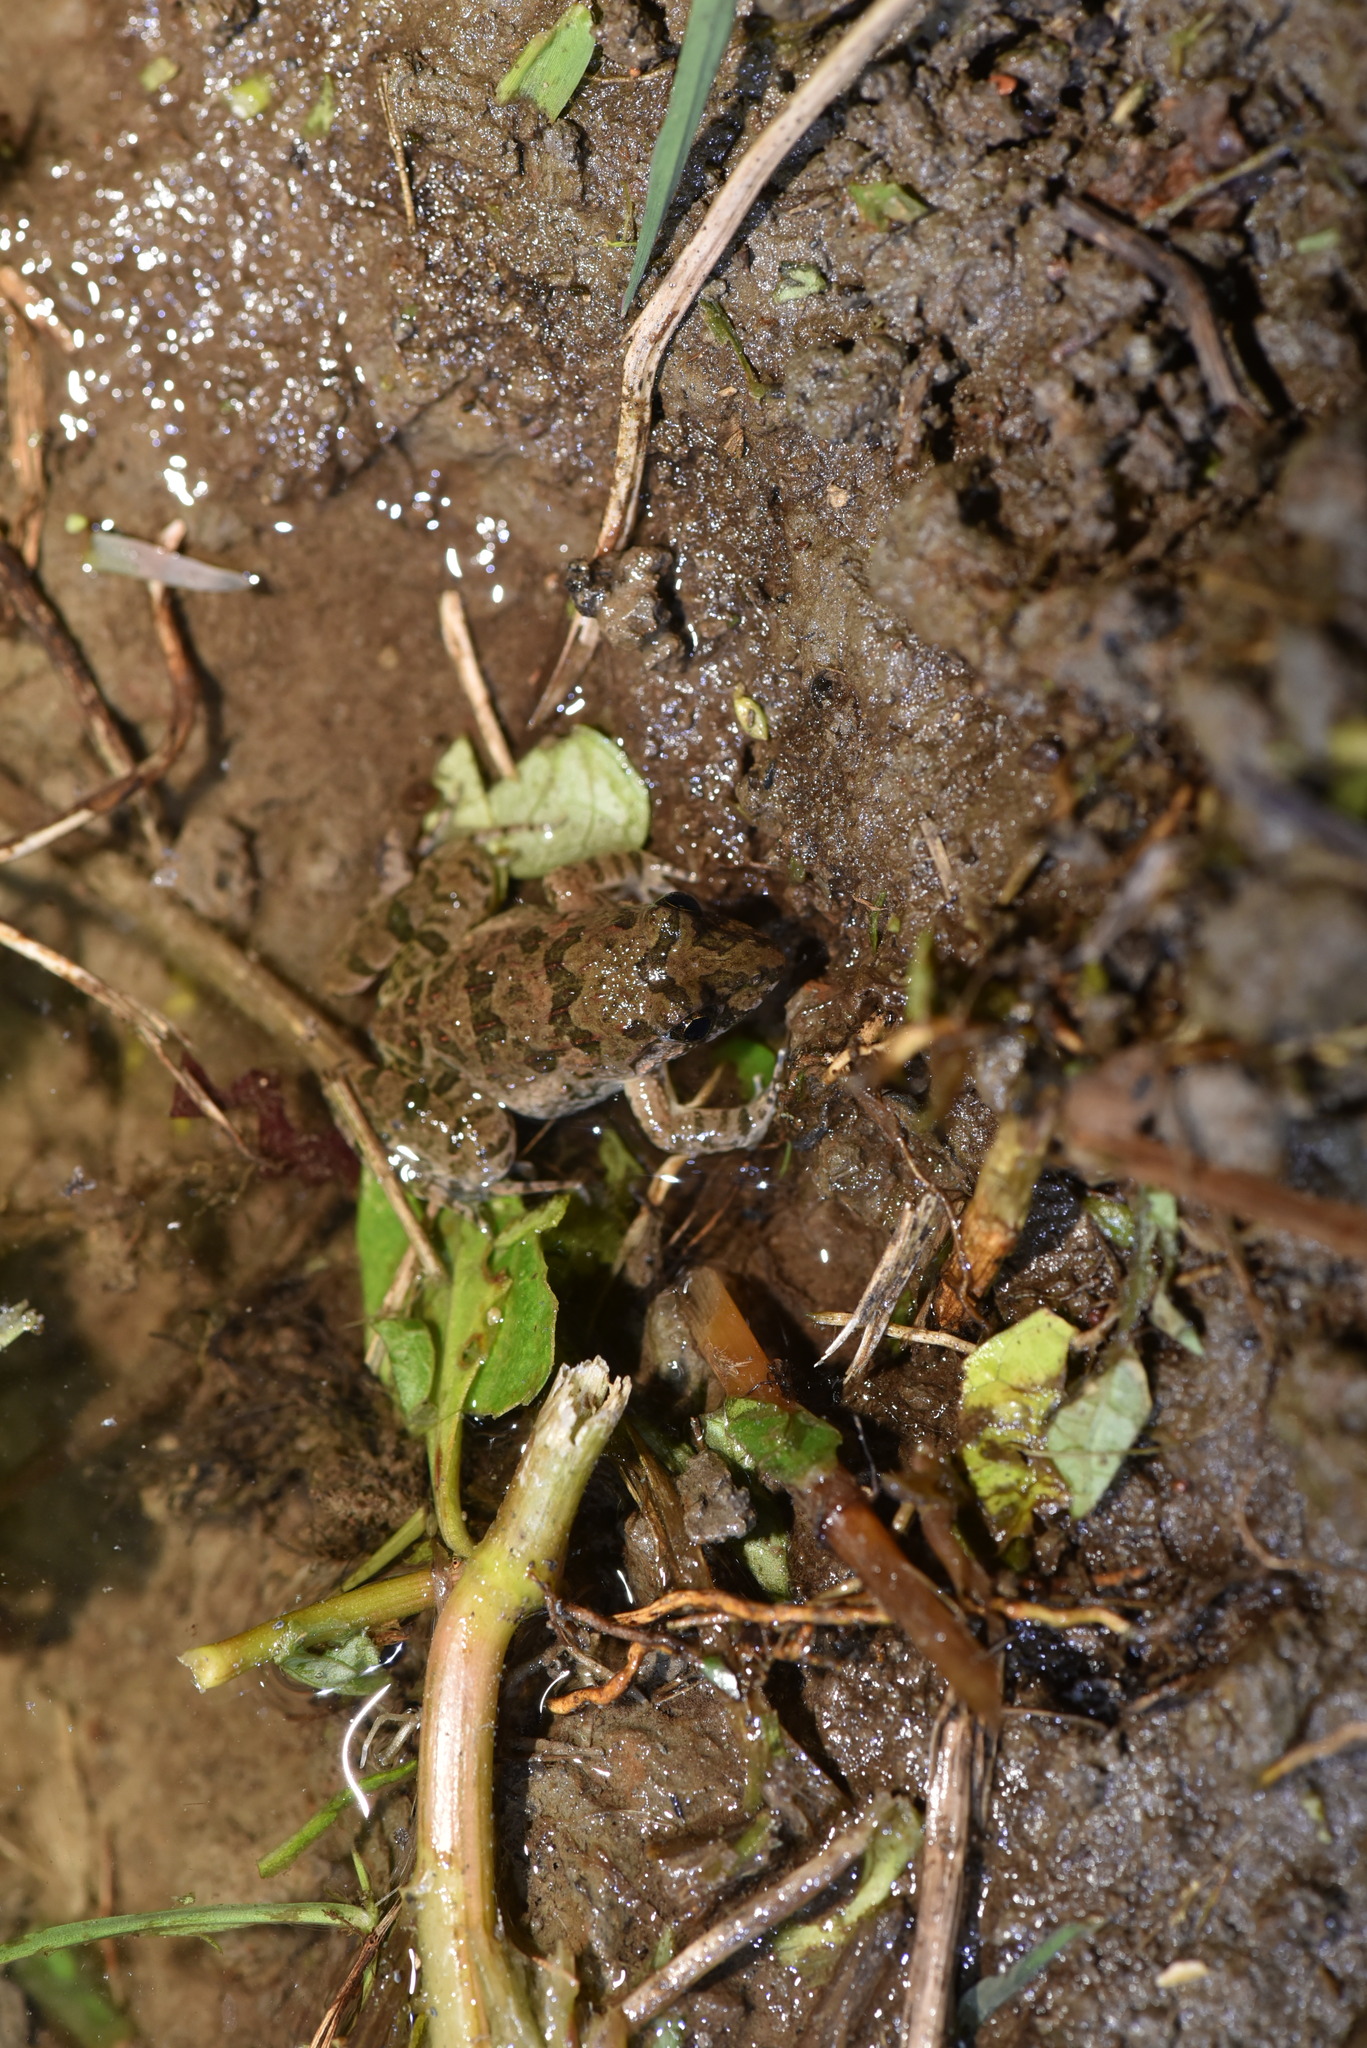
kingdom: Animalia
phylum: Chordata
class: Amphibia
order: Anura
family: Dicroglossidae
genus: Fejervarya
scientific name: Fejervarya limnocharis
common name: Asian grass frog/common pond frog/field frog/grass frog/indian rice frog
